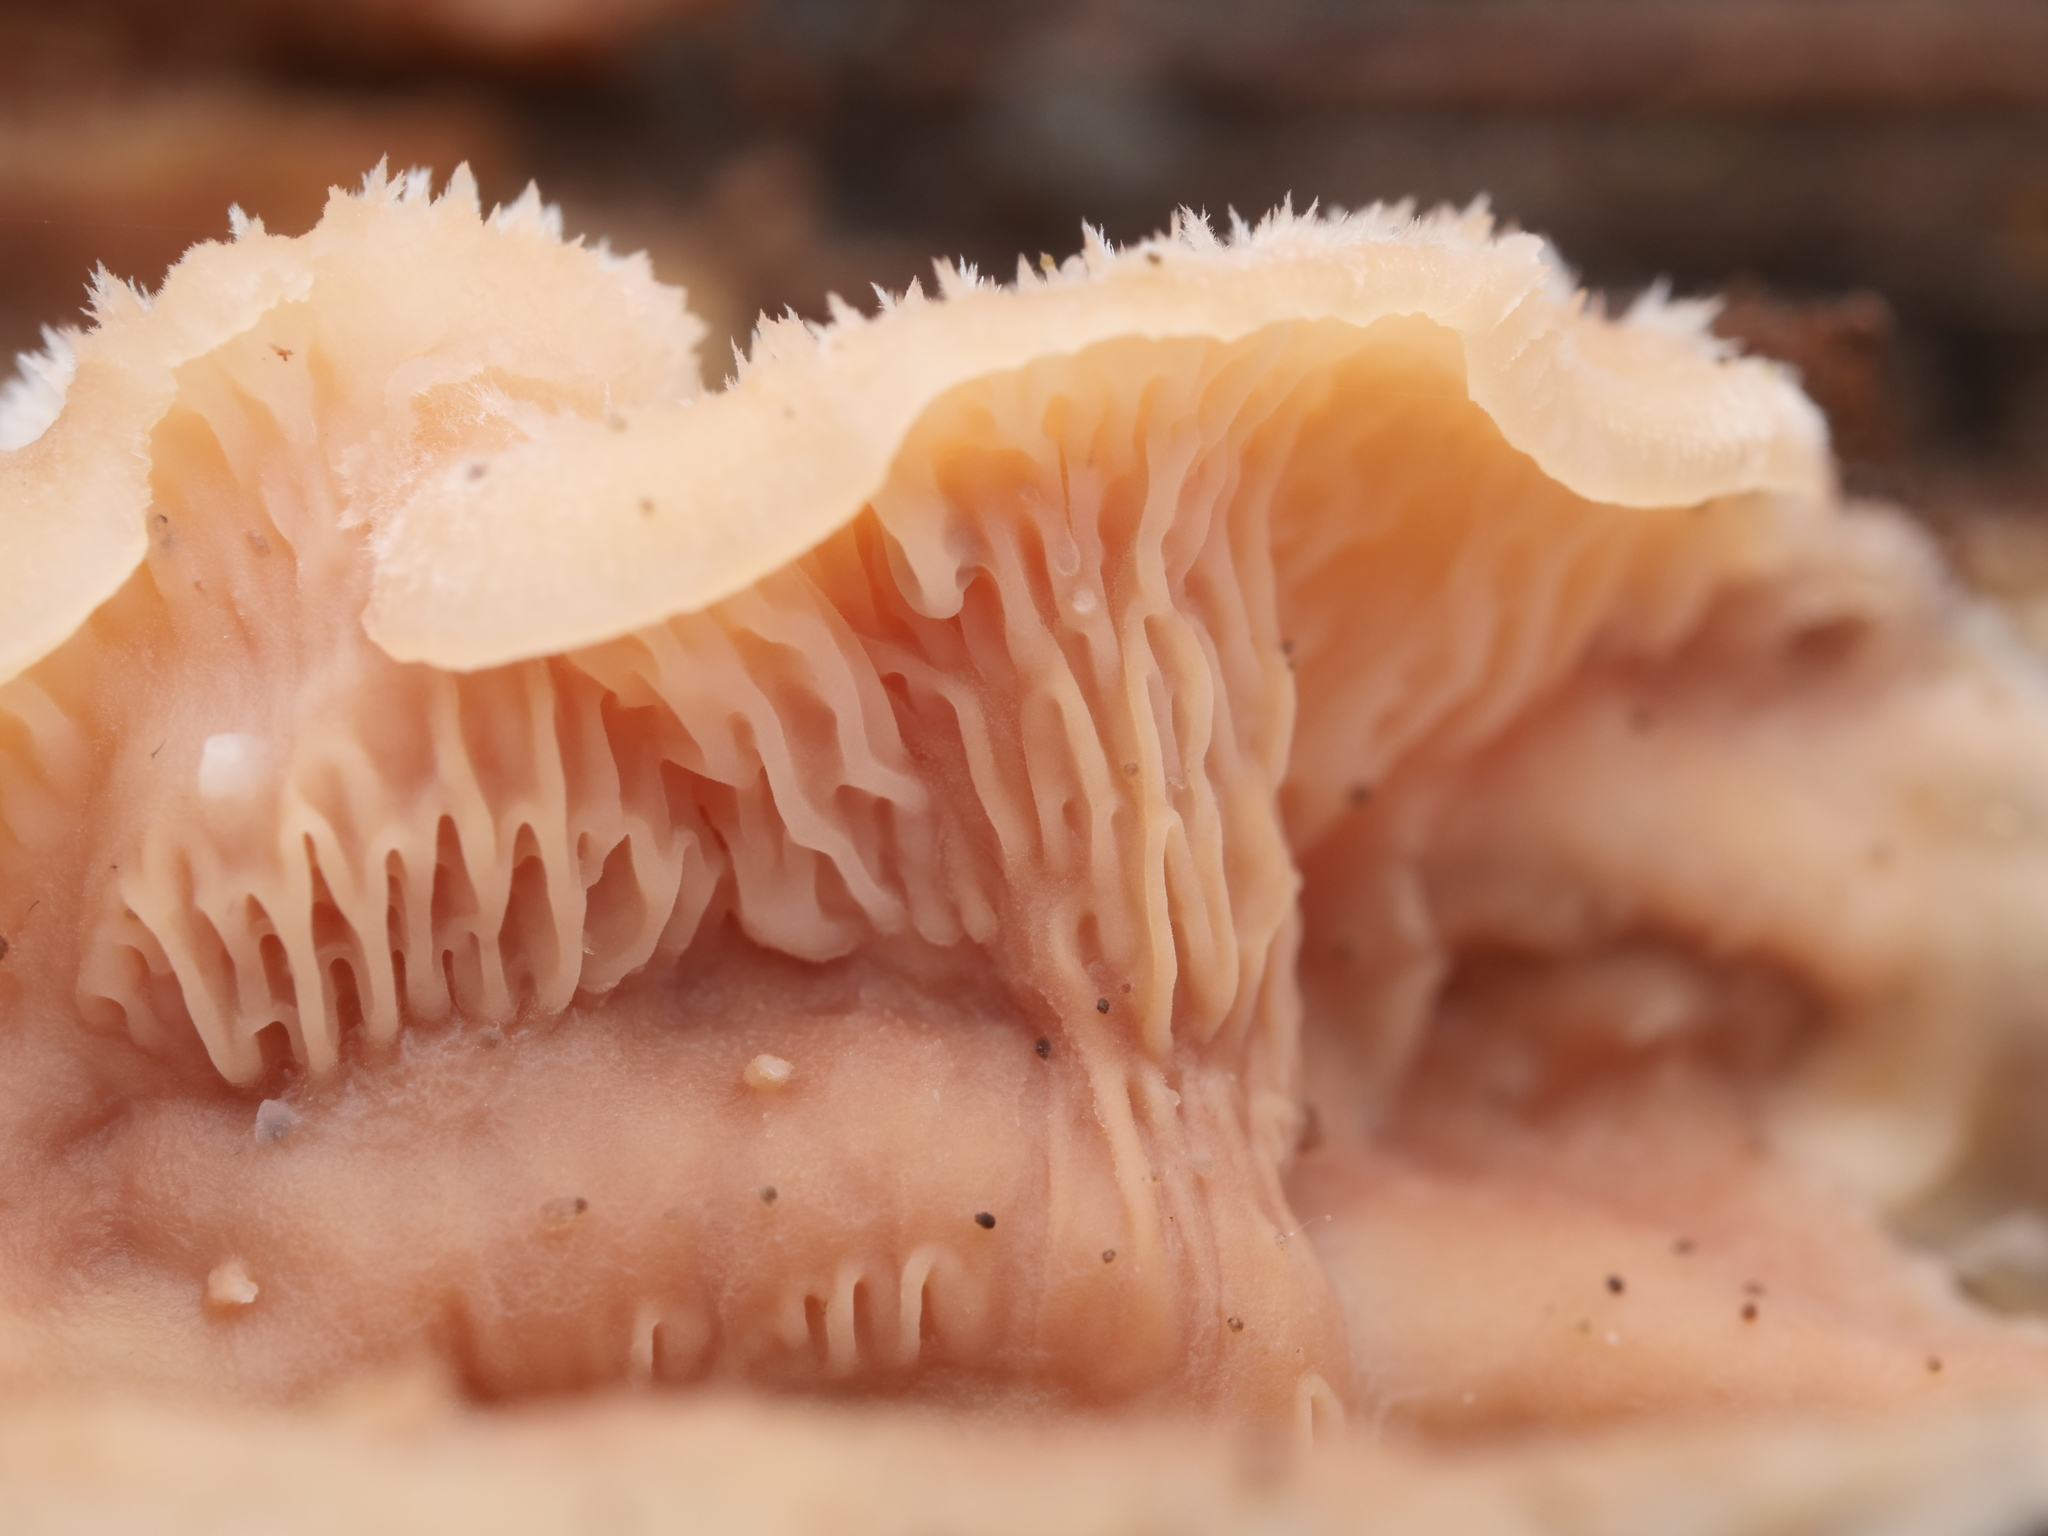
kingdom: Fungi
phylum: Basidiomycota
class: Agaricomycetes
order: Polyporales
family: Meruliaceae
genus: Phlebia
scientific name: Phlebia tremellosa
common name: Jelly rot
